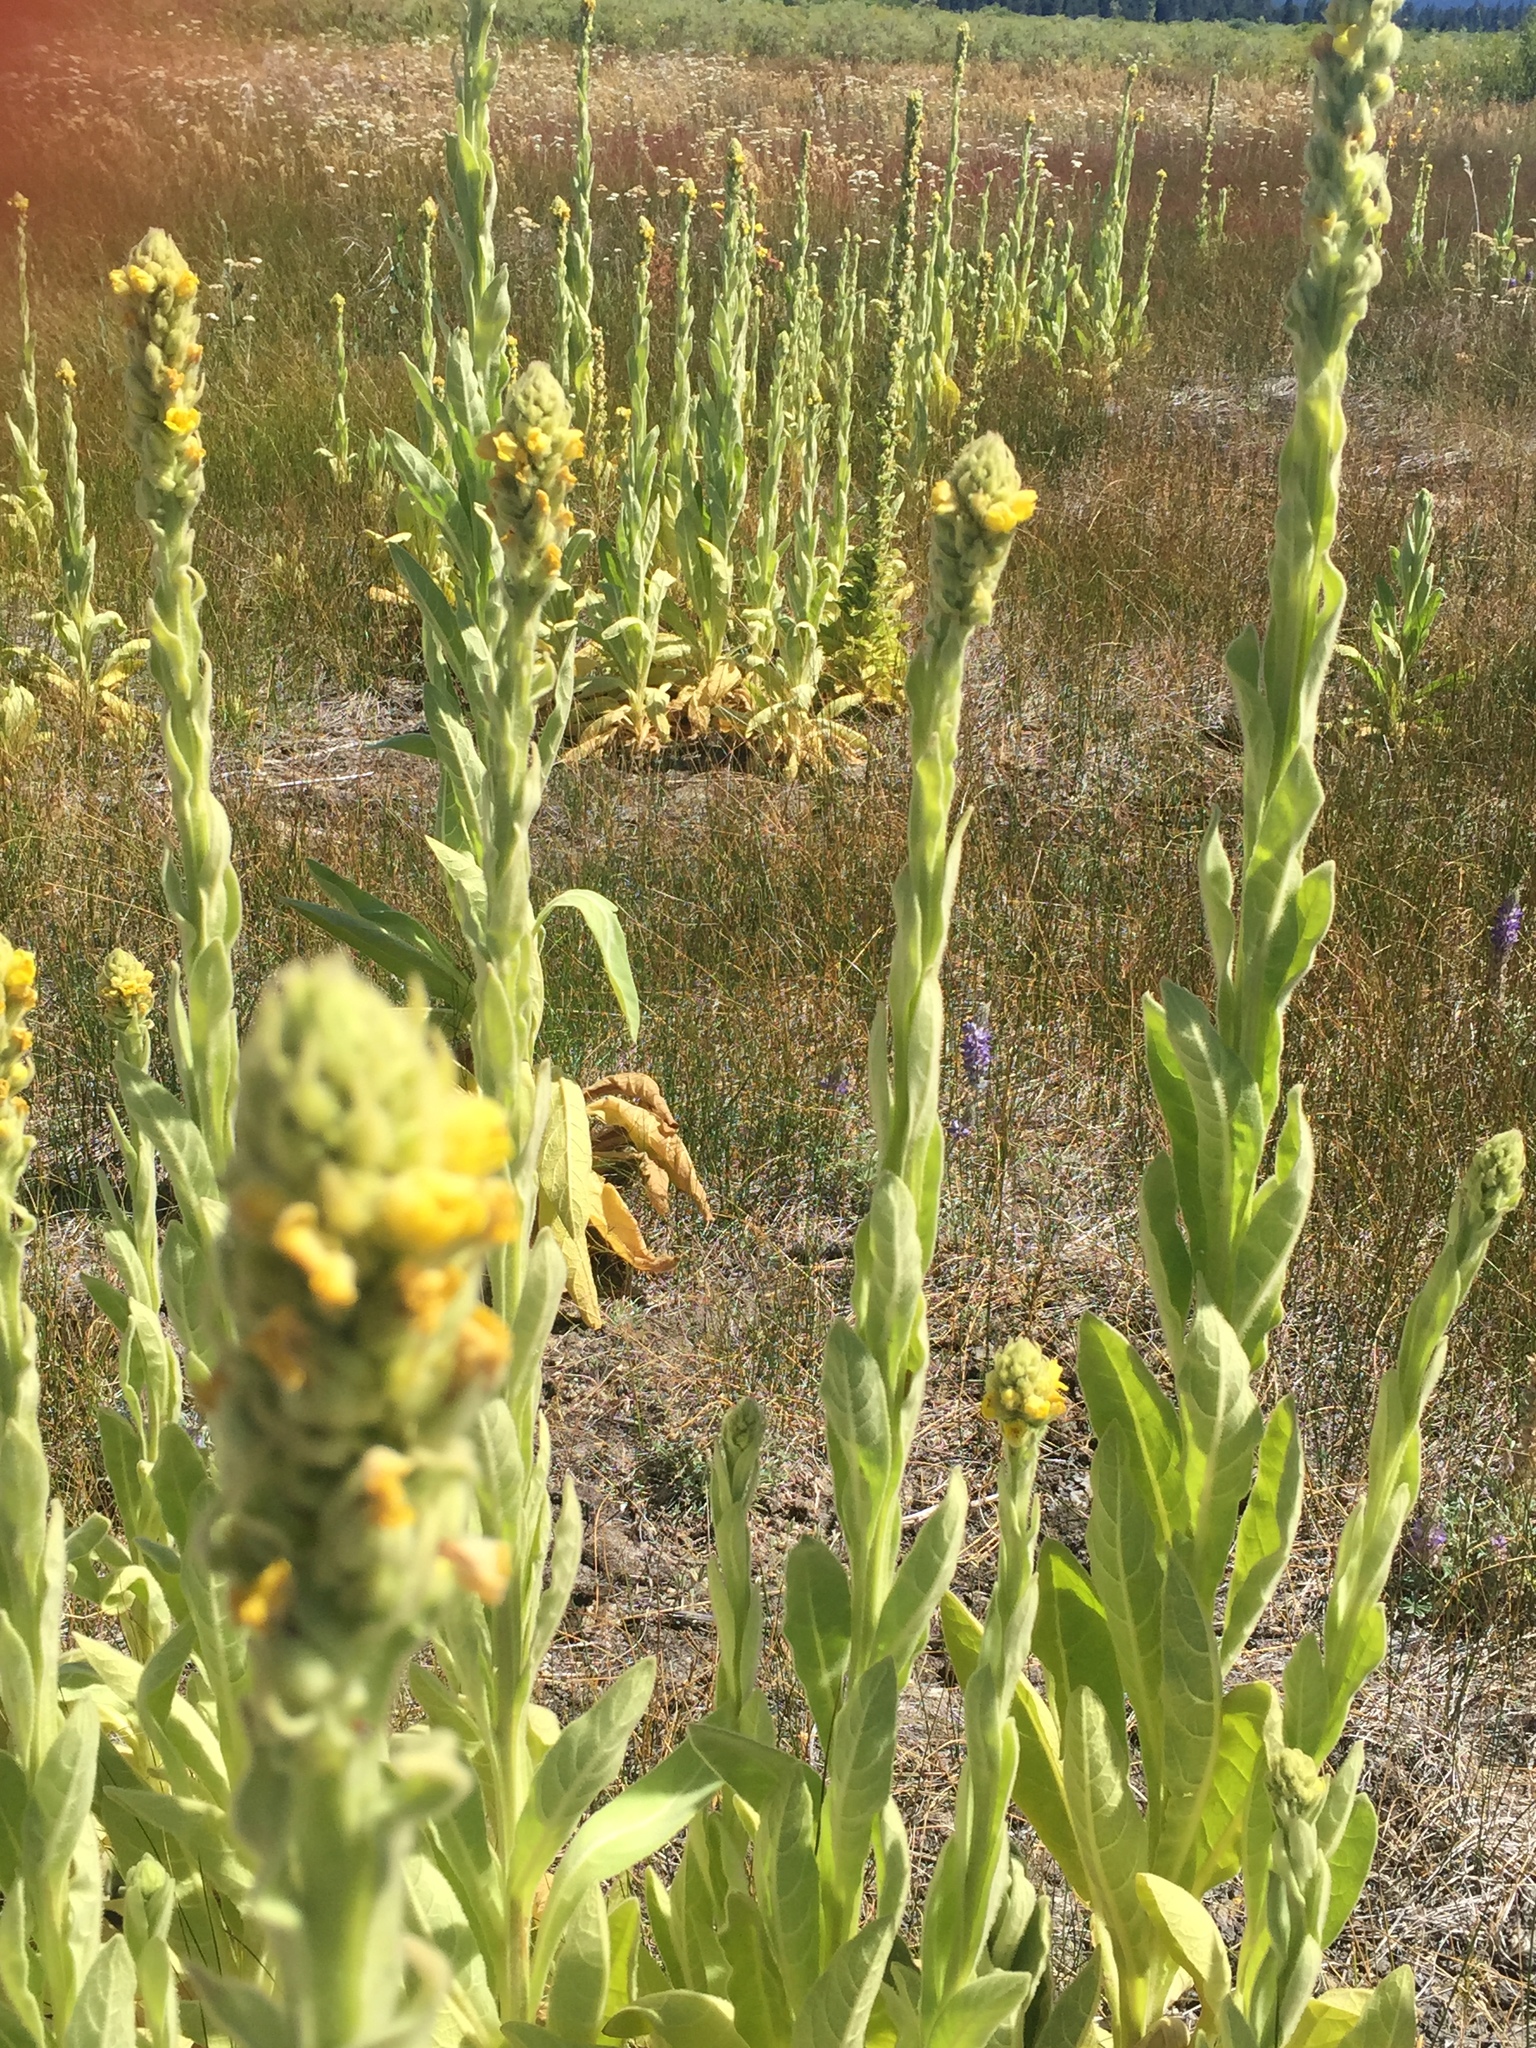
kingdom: Plantae
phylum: Tracheophyta
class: Magnoliopsida
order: Lamiales
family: Scrophulariaceae
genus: Verbascum
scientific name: Verbascum thapsus
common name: Common mullein
